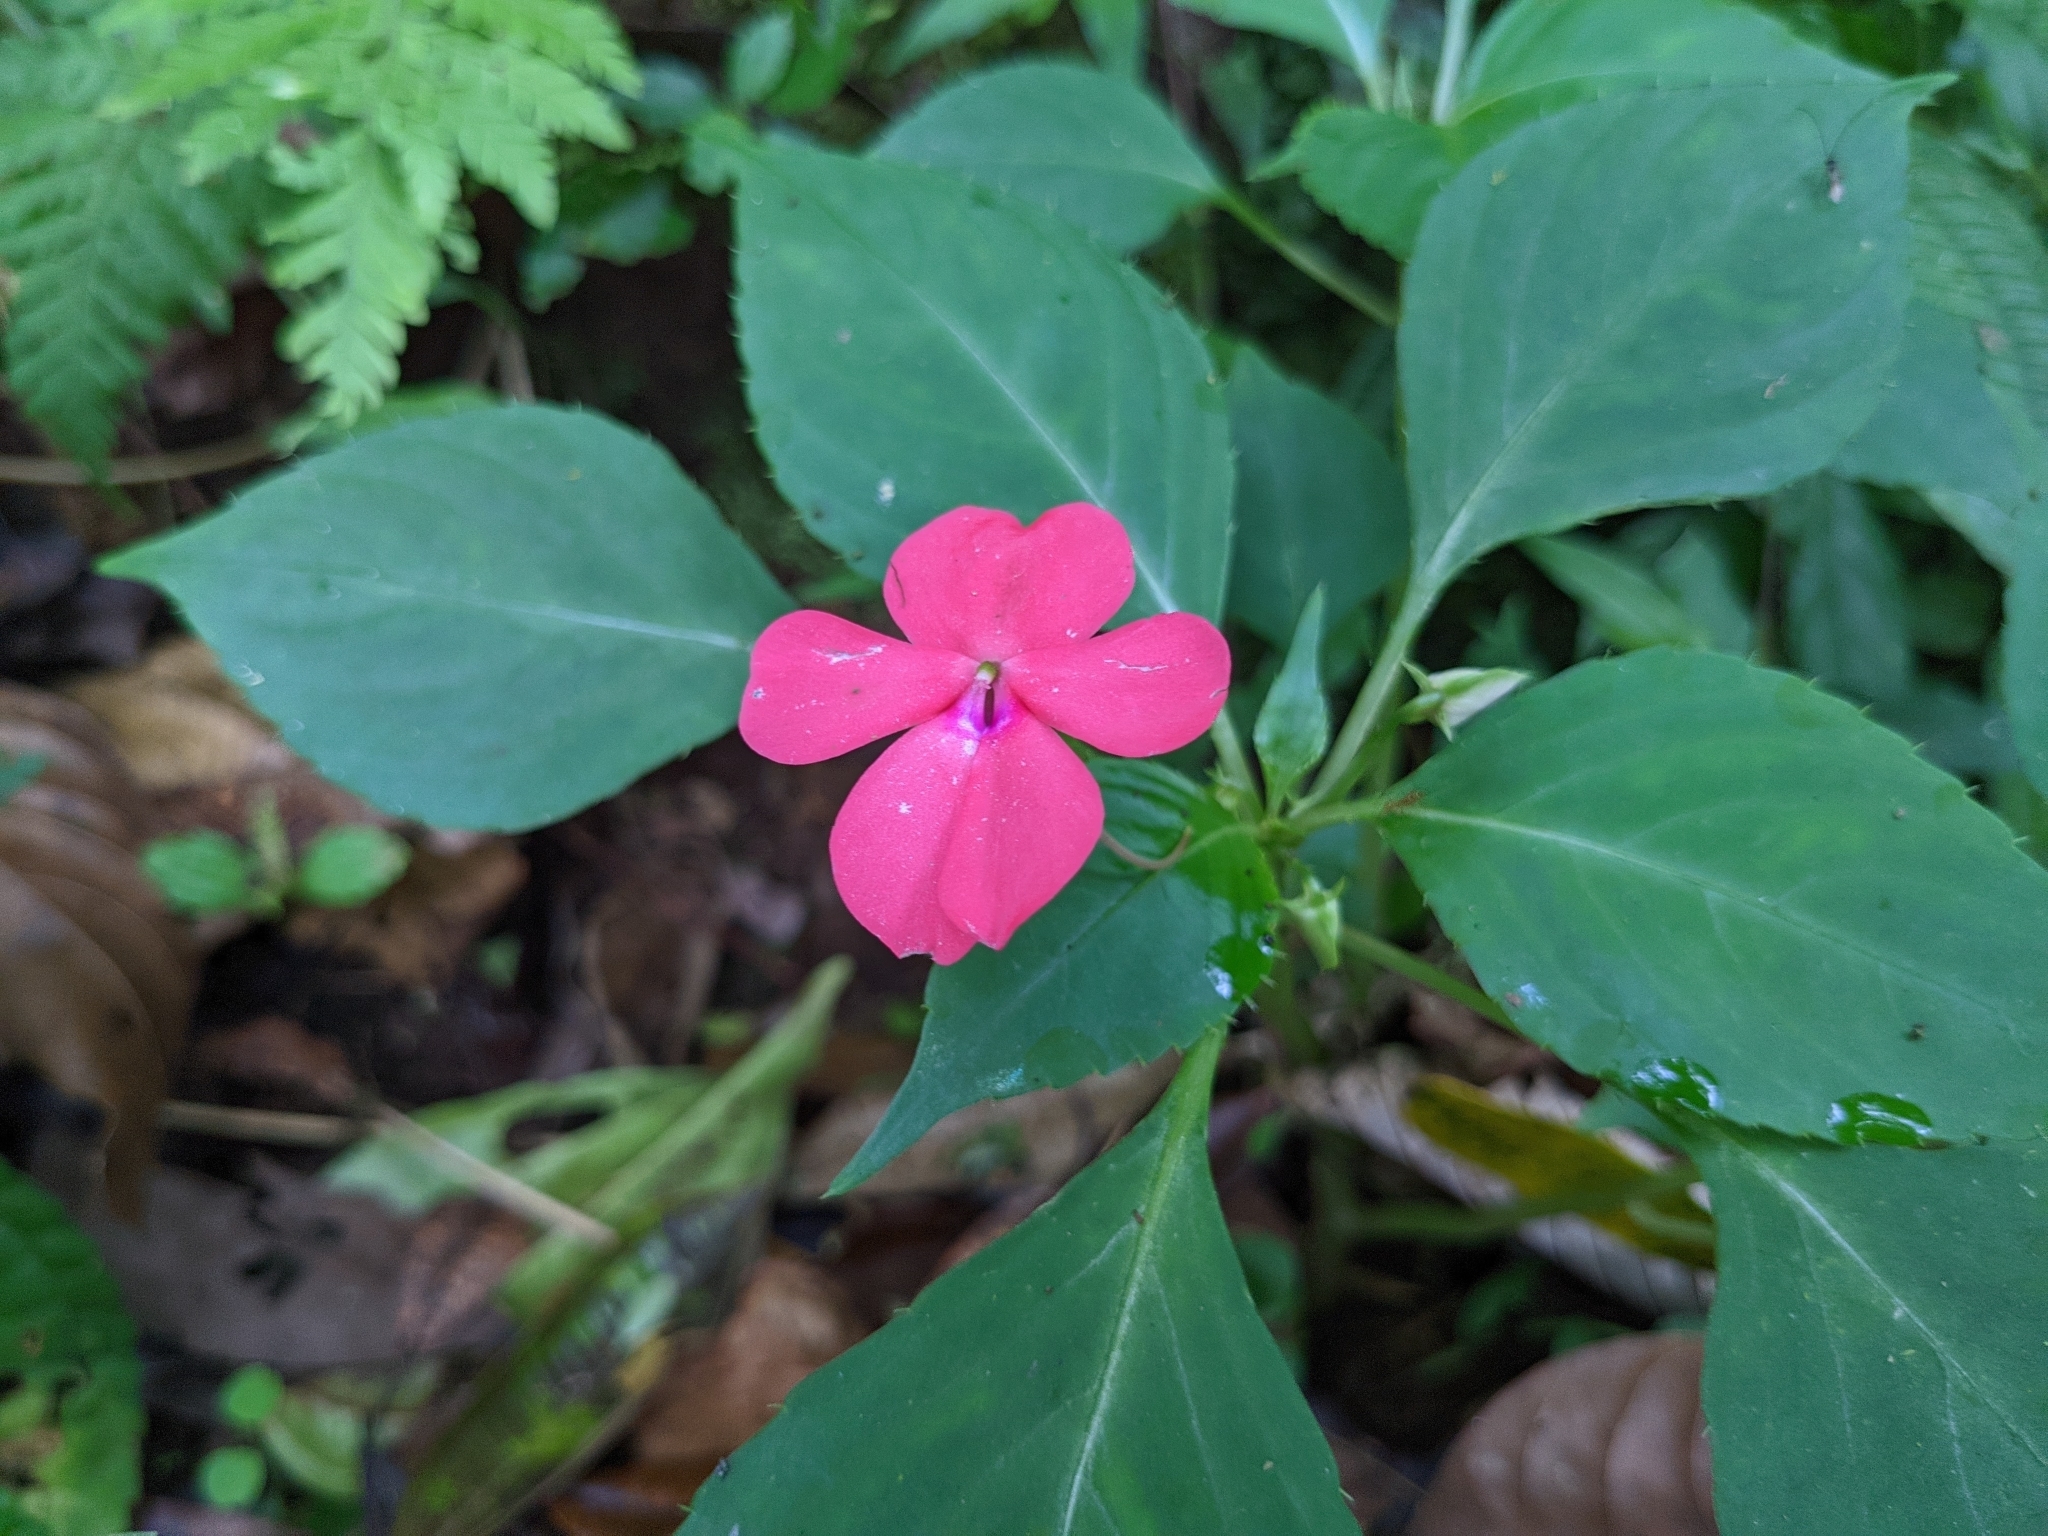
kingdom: Plantae
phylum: Tracheophyta
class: Magnoliopsida
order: Ericales
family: Balsaminaceae
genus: Impatiens
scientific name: Impatiens walleriana
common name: Buzzy lizzy
